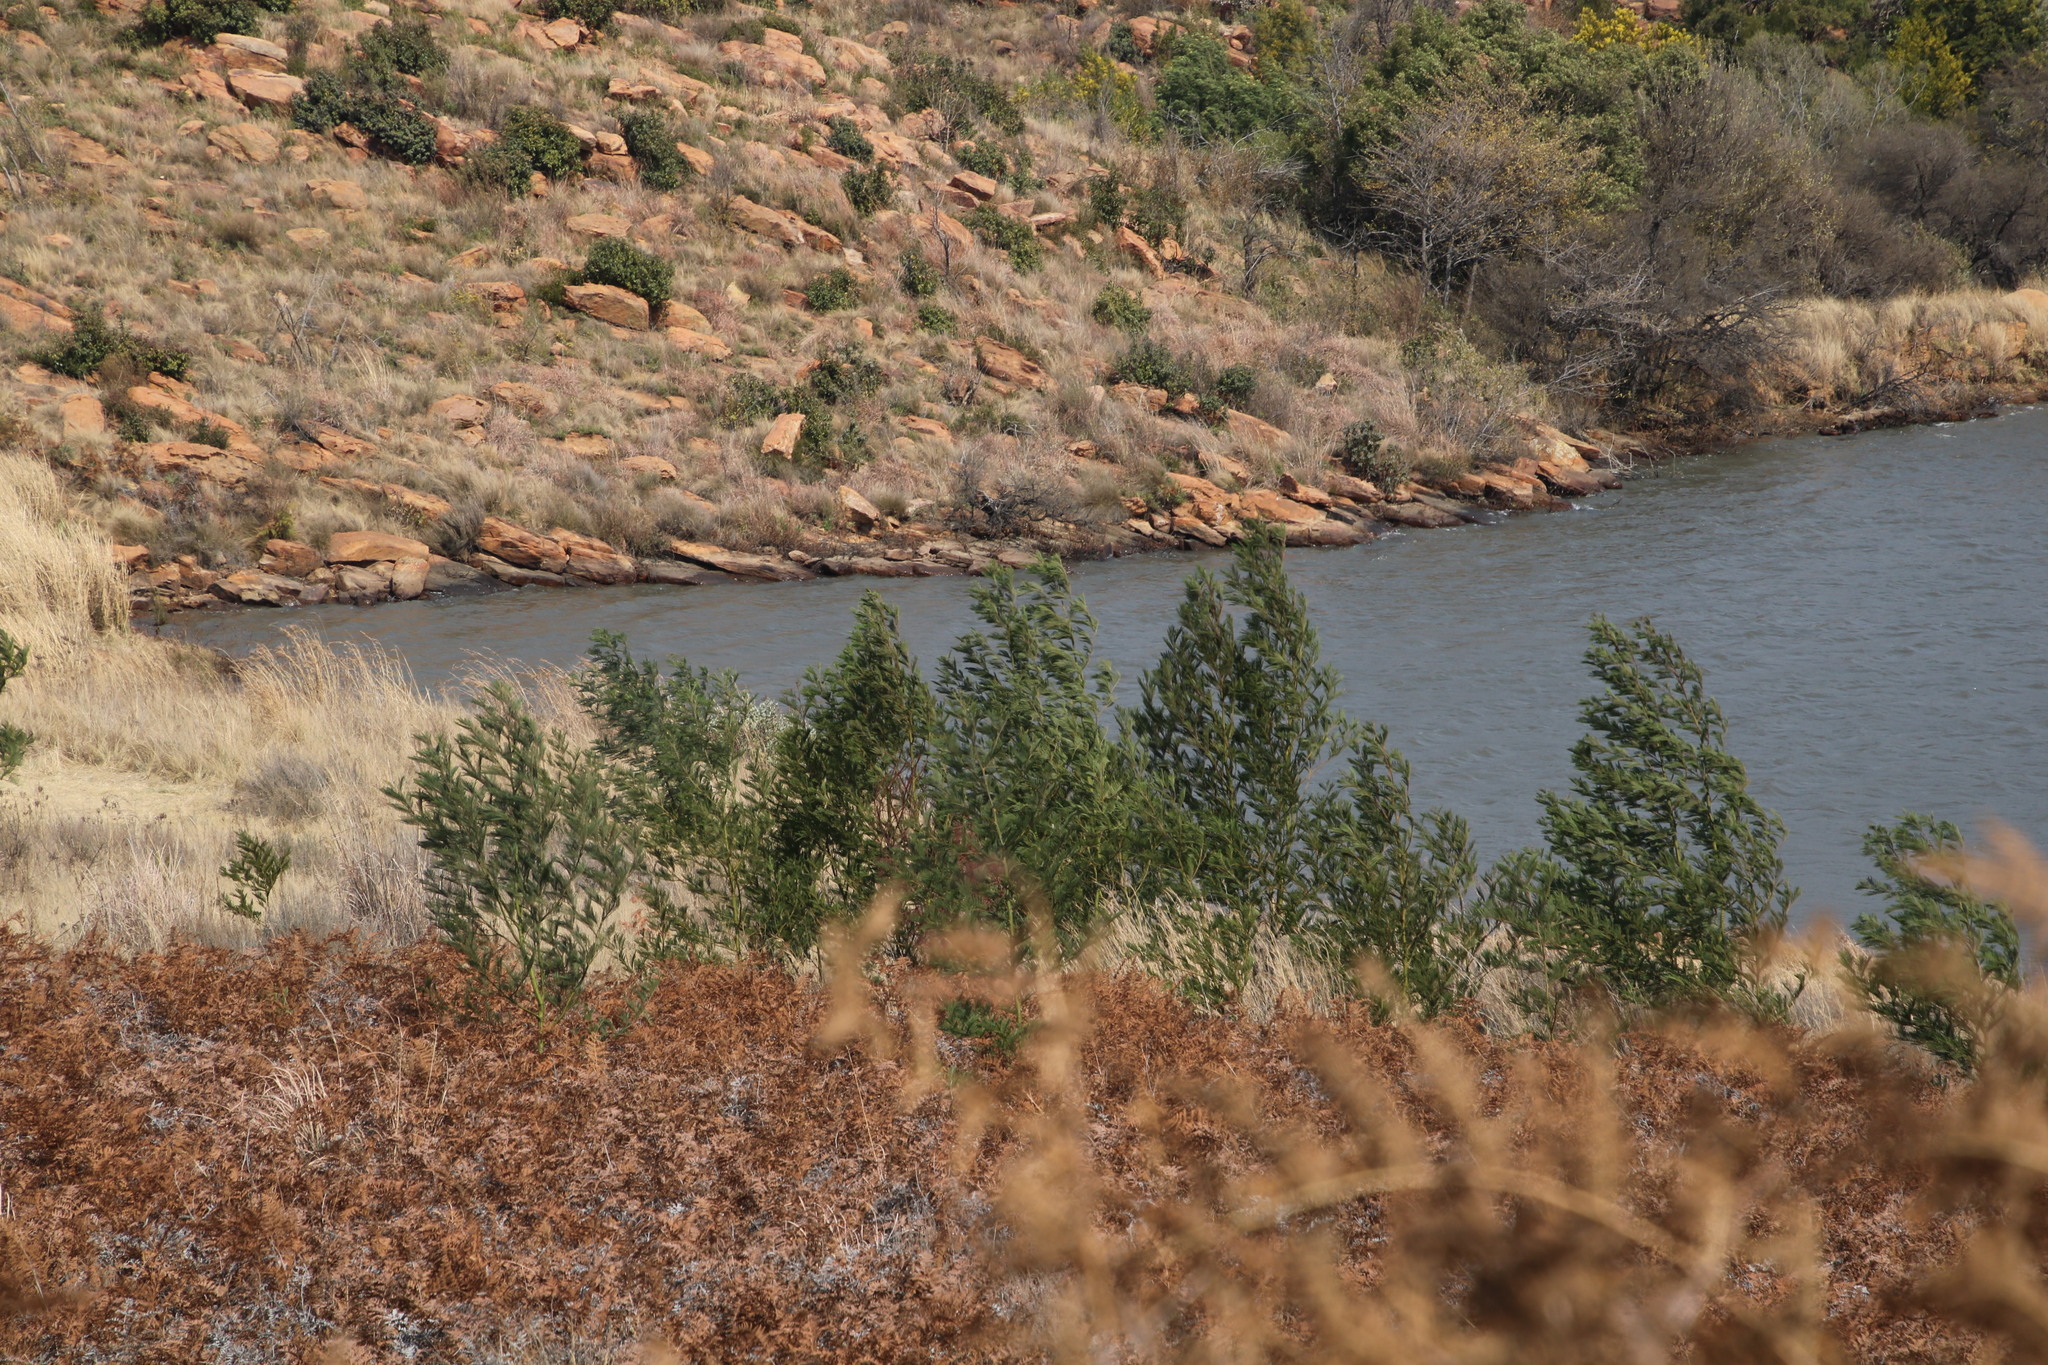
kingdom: Plantae
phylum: Tracheophyta
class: Magnoliopsida
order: Fabales
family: Fabaceae
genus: Acacia
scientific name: Acacia mearnsii
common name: Black wattle
